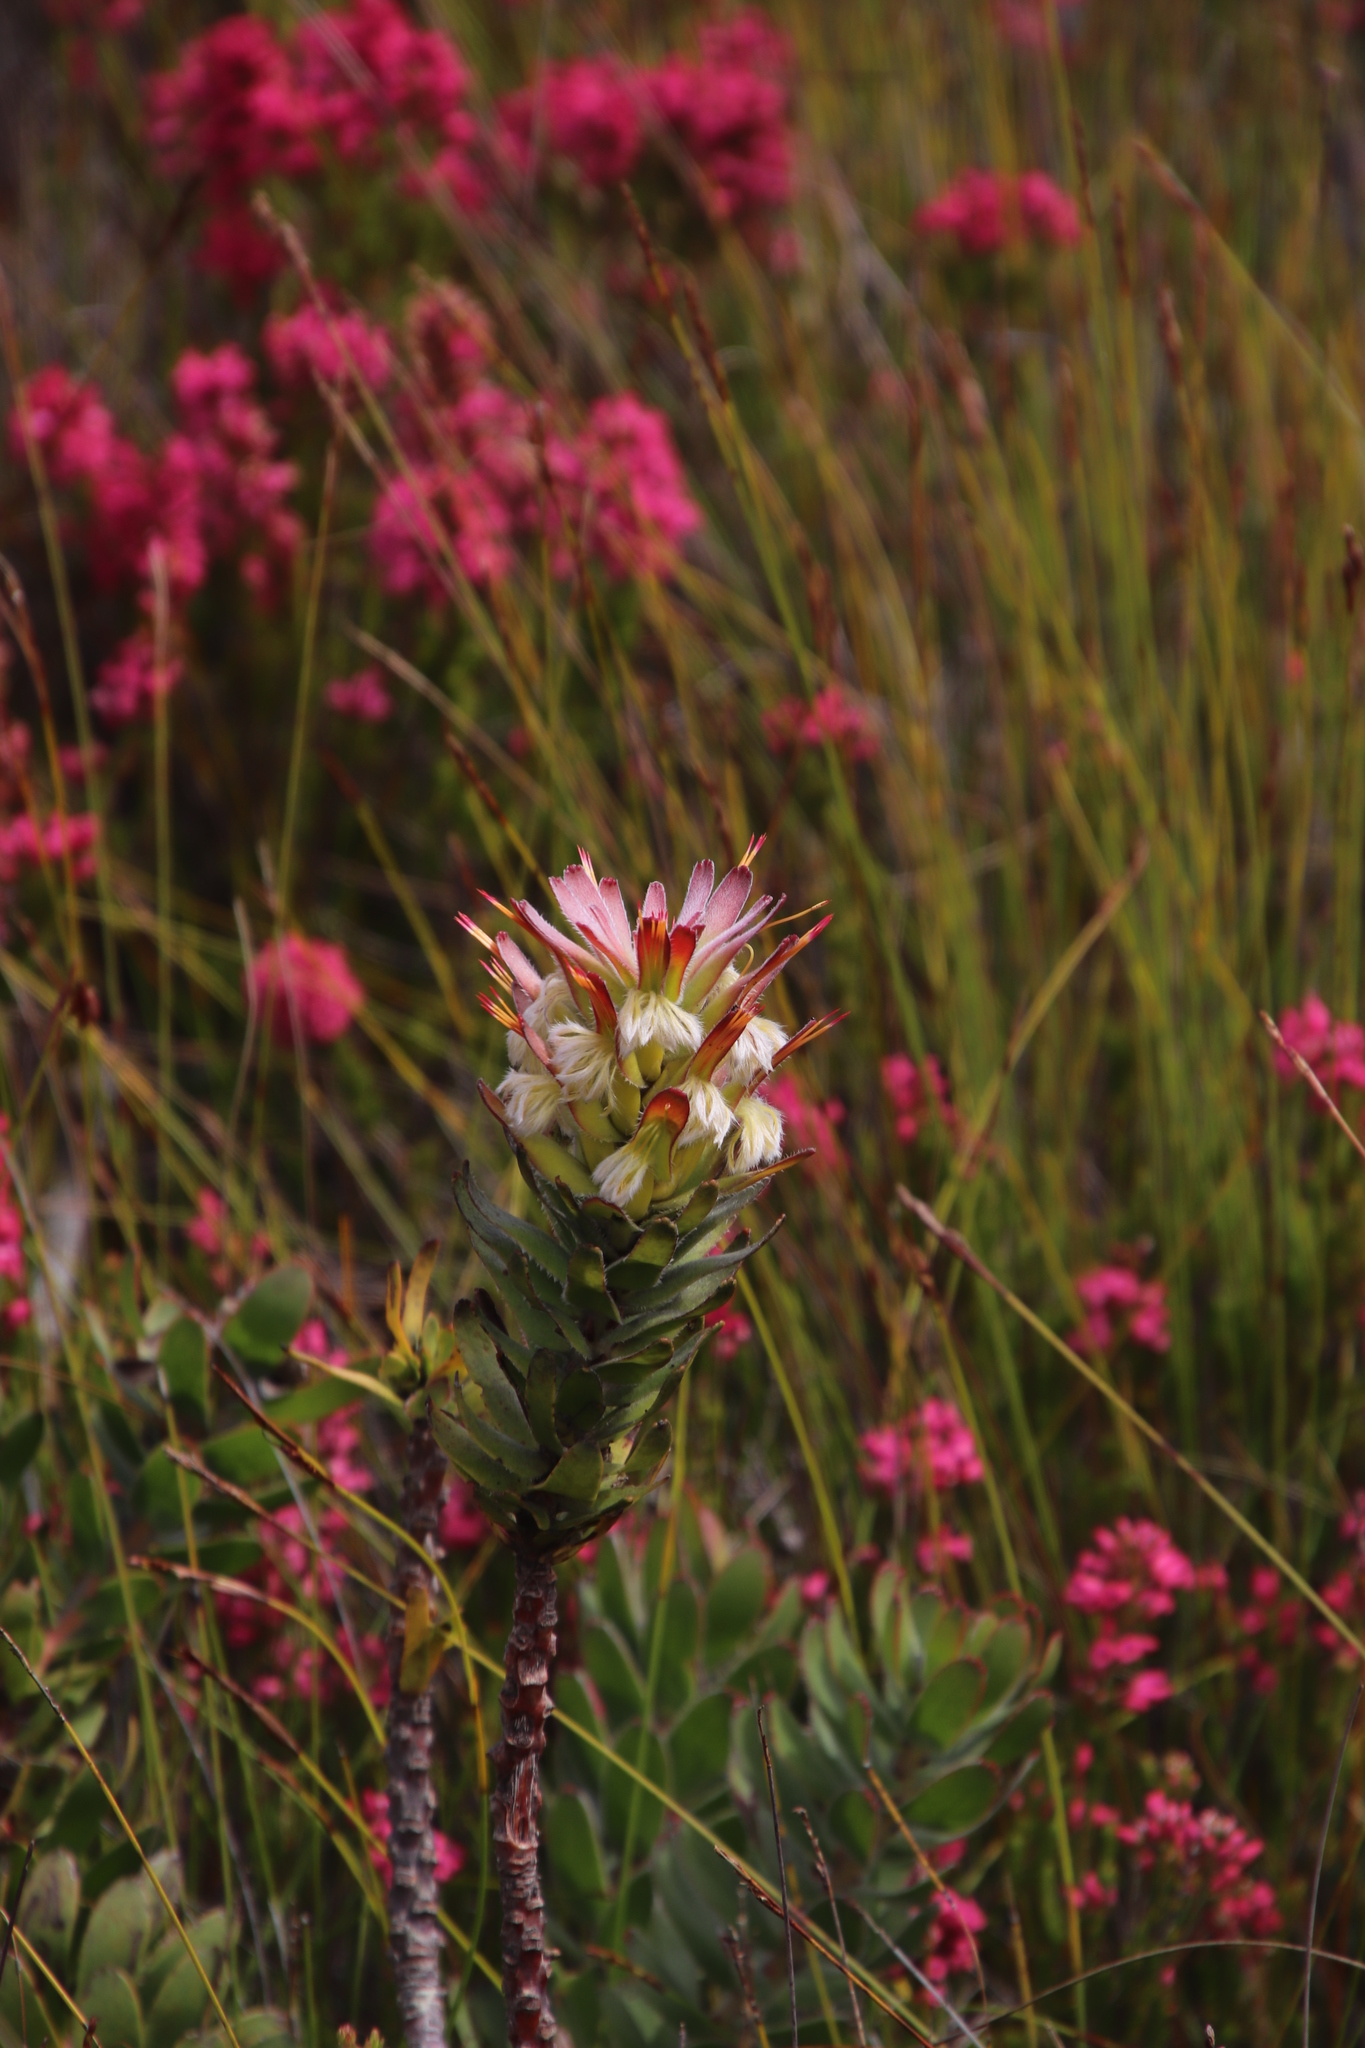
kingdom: Plantae
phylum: Tracheophyta
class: Magnoliopsida
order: Proteales
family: Proteaceae
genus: Mimetes
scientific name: Mimetes cucullatus
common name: Common pagoda
